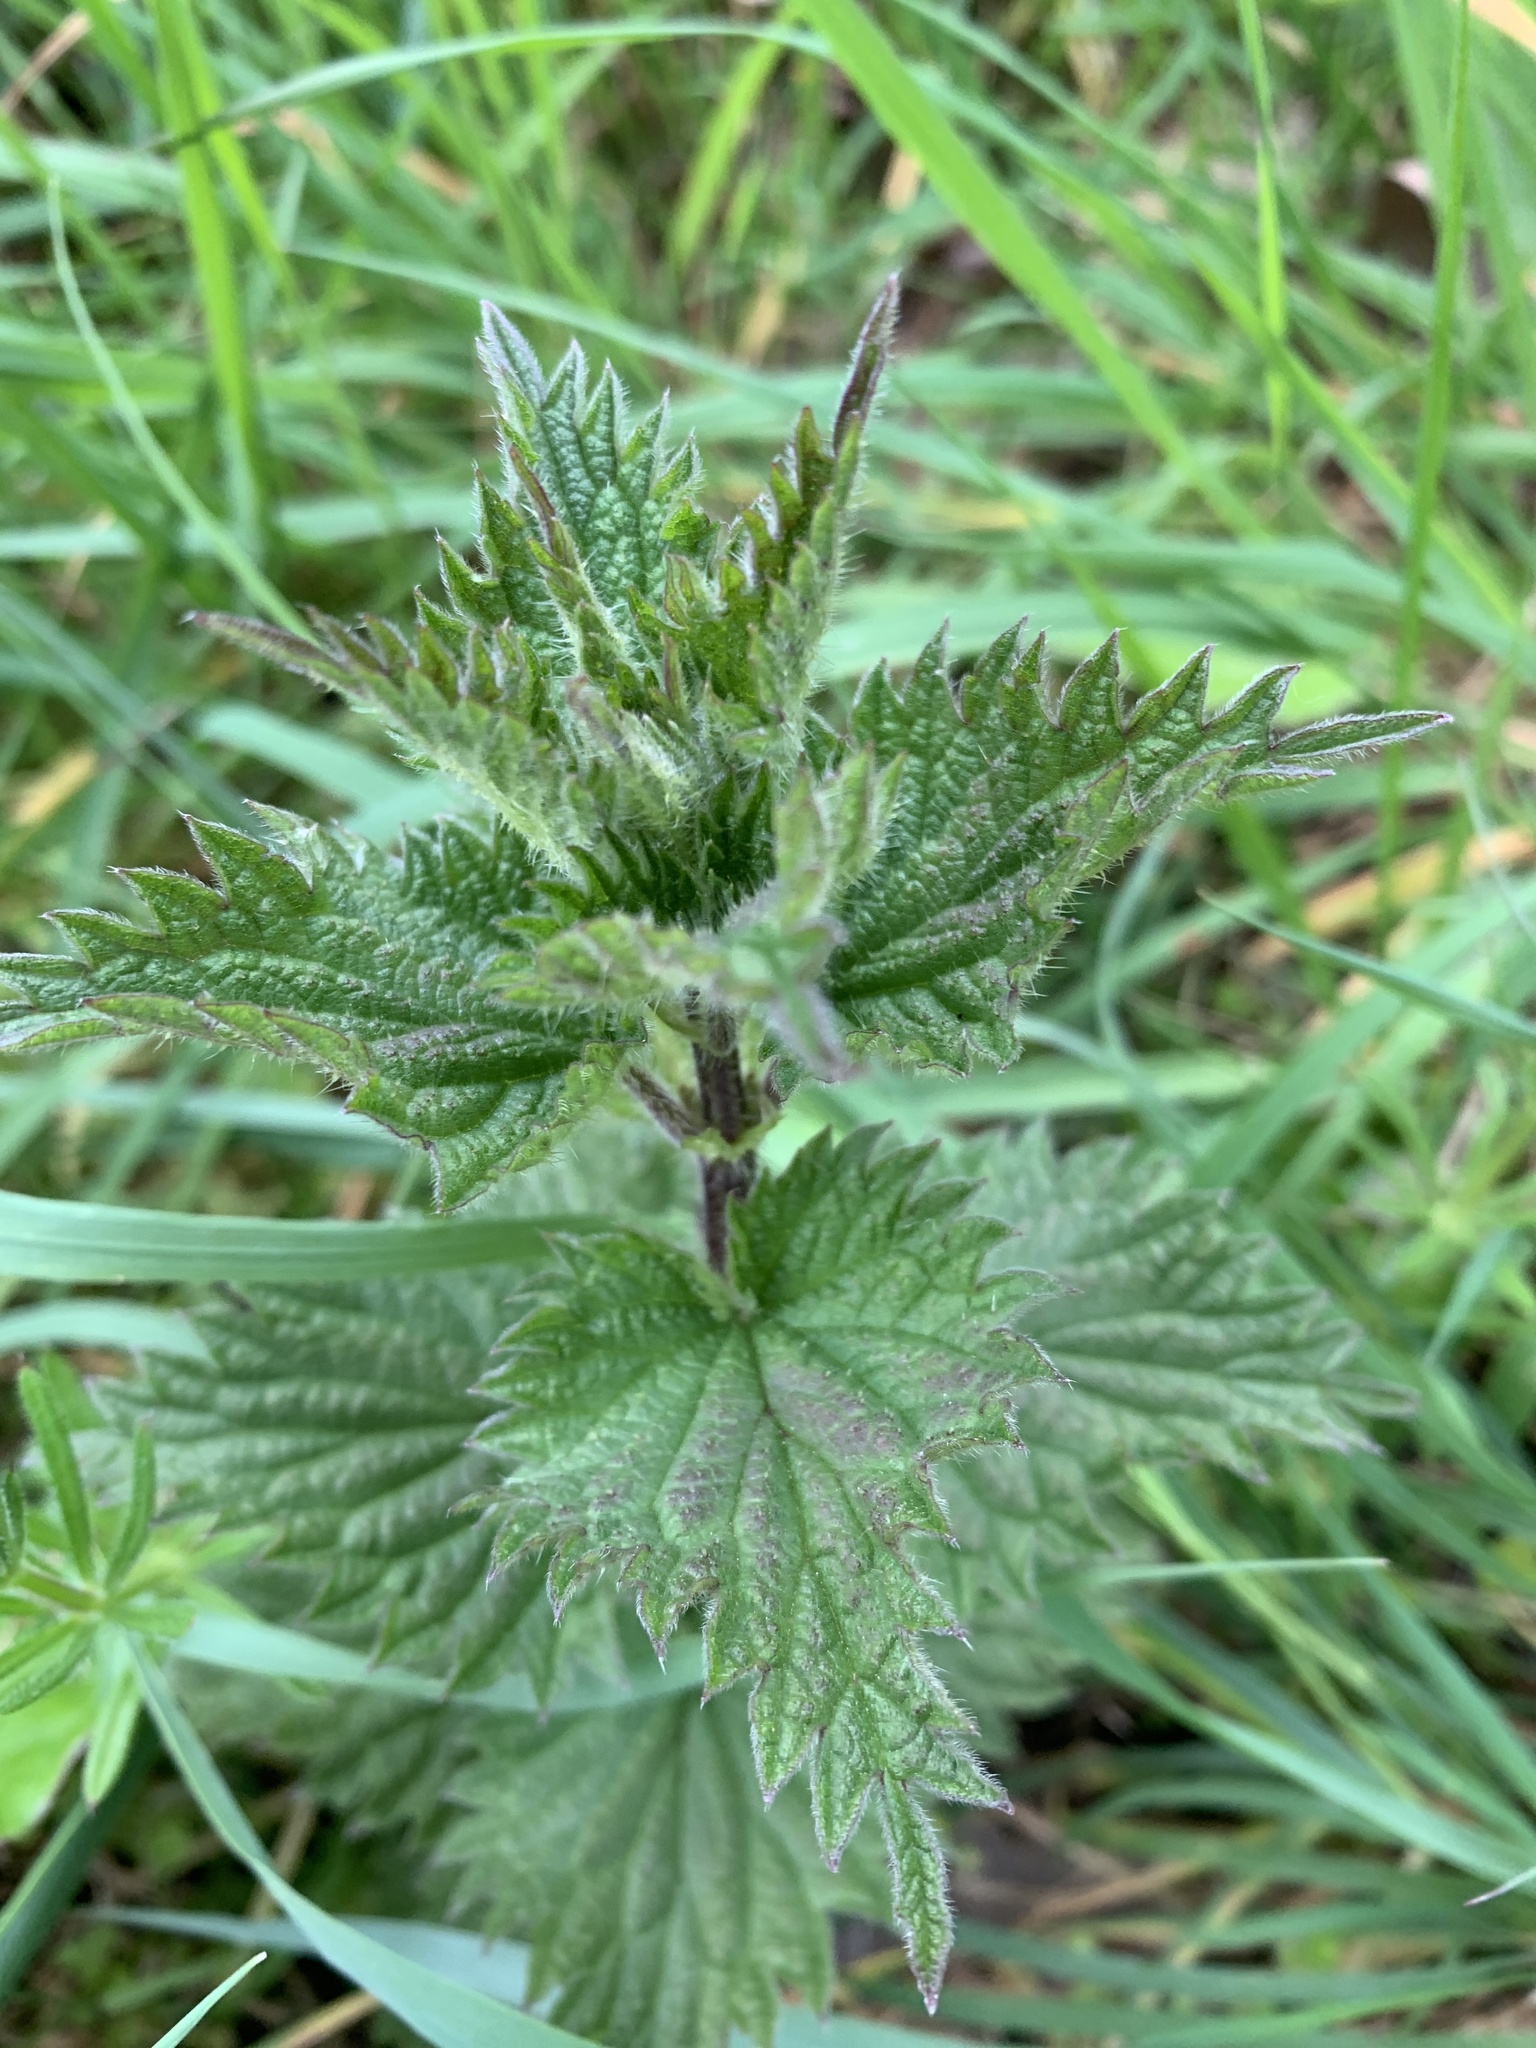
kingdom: Plantae
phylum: Tracheophyta
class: Magnoliopsida
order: Rosales
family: Urticaceae
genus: Urtica
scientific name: Urtica dioica
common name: Common nettle
